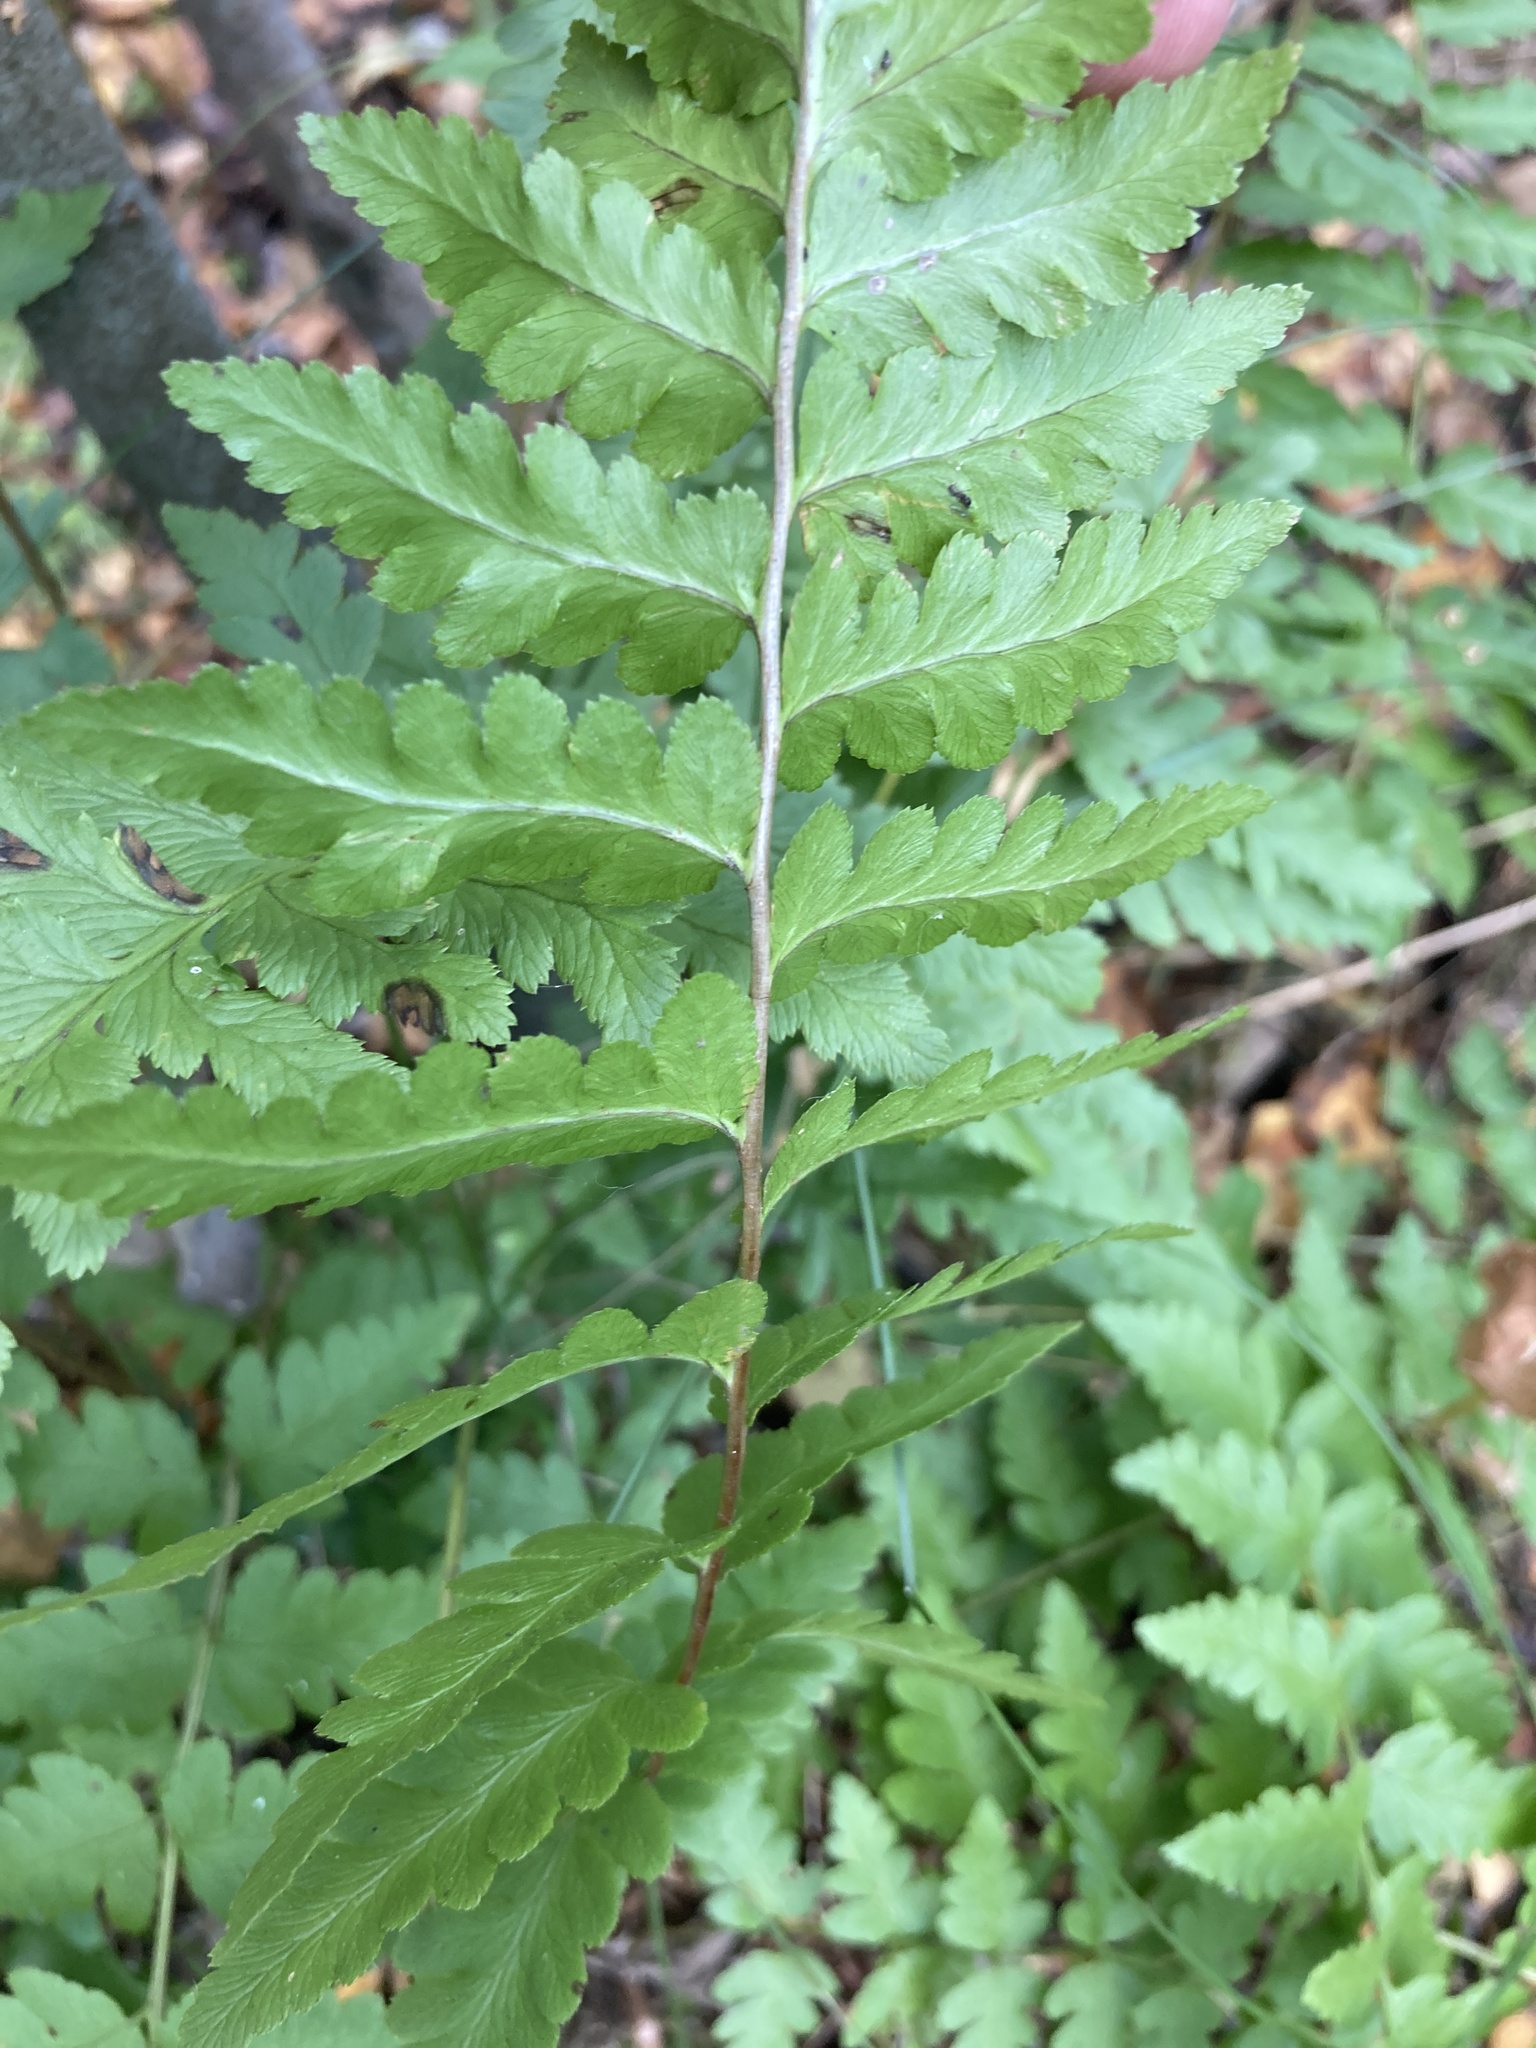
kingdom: Plantae
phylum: Tracheophyta
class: Polypodiopsida
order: Polypodiales
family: Dryopteridaceae
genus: Dryopteris
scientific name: Dryopteris cristata
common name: Crested wood fern
